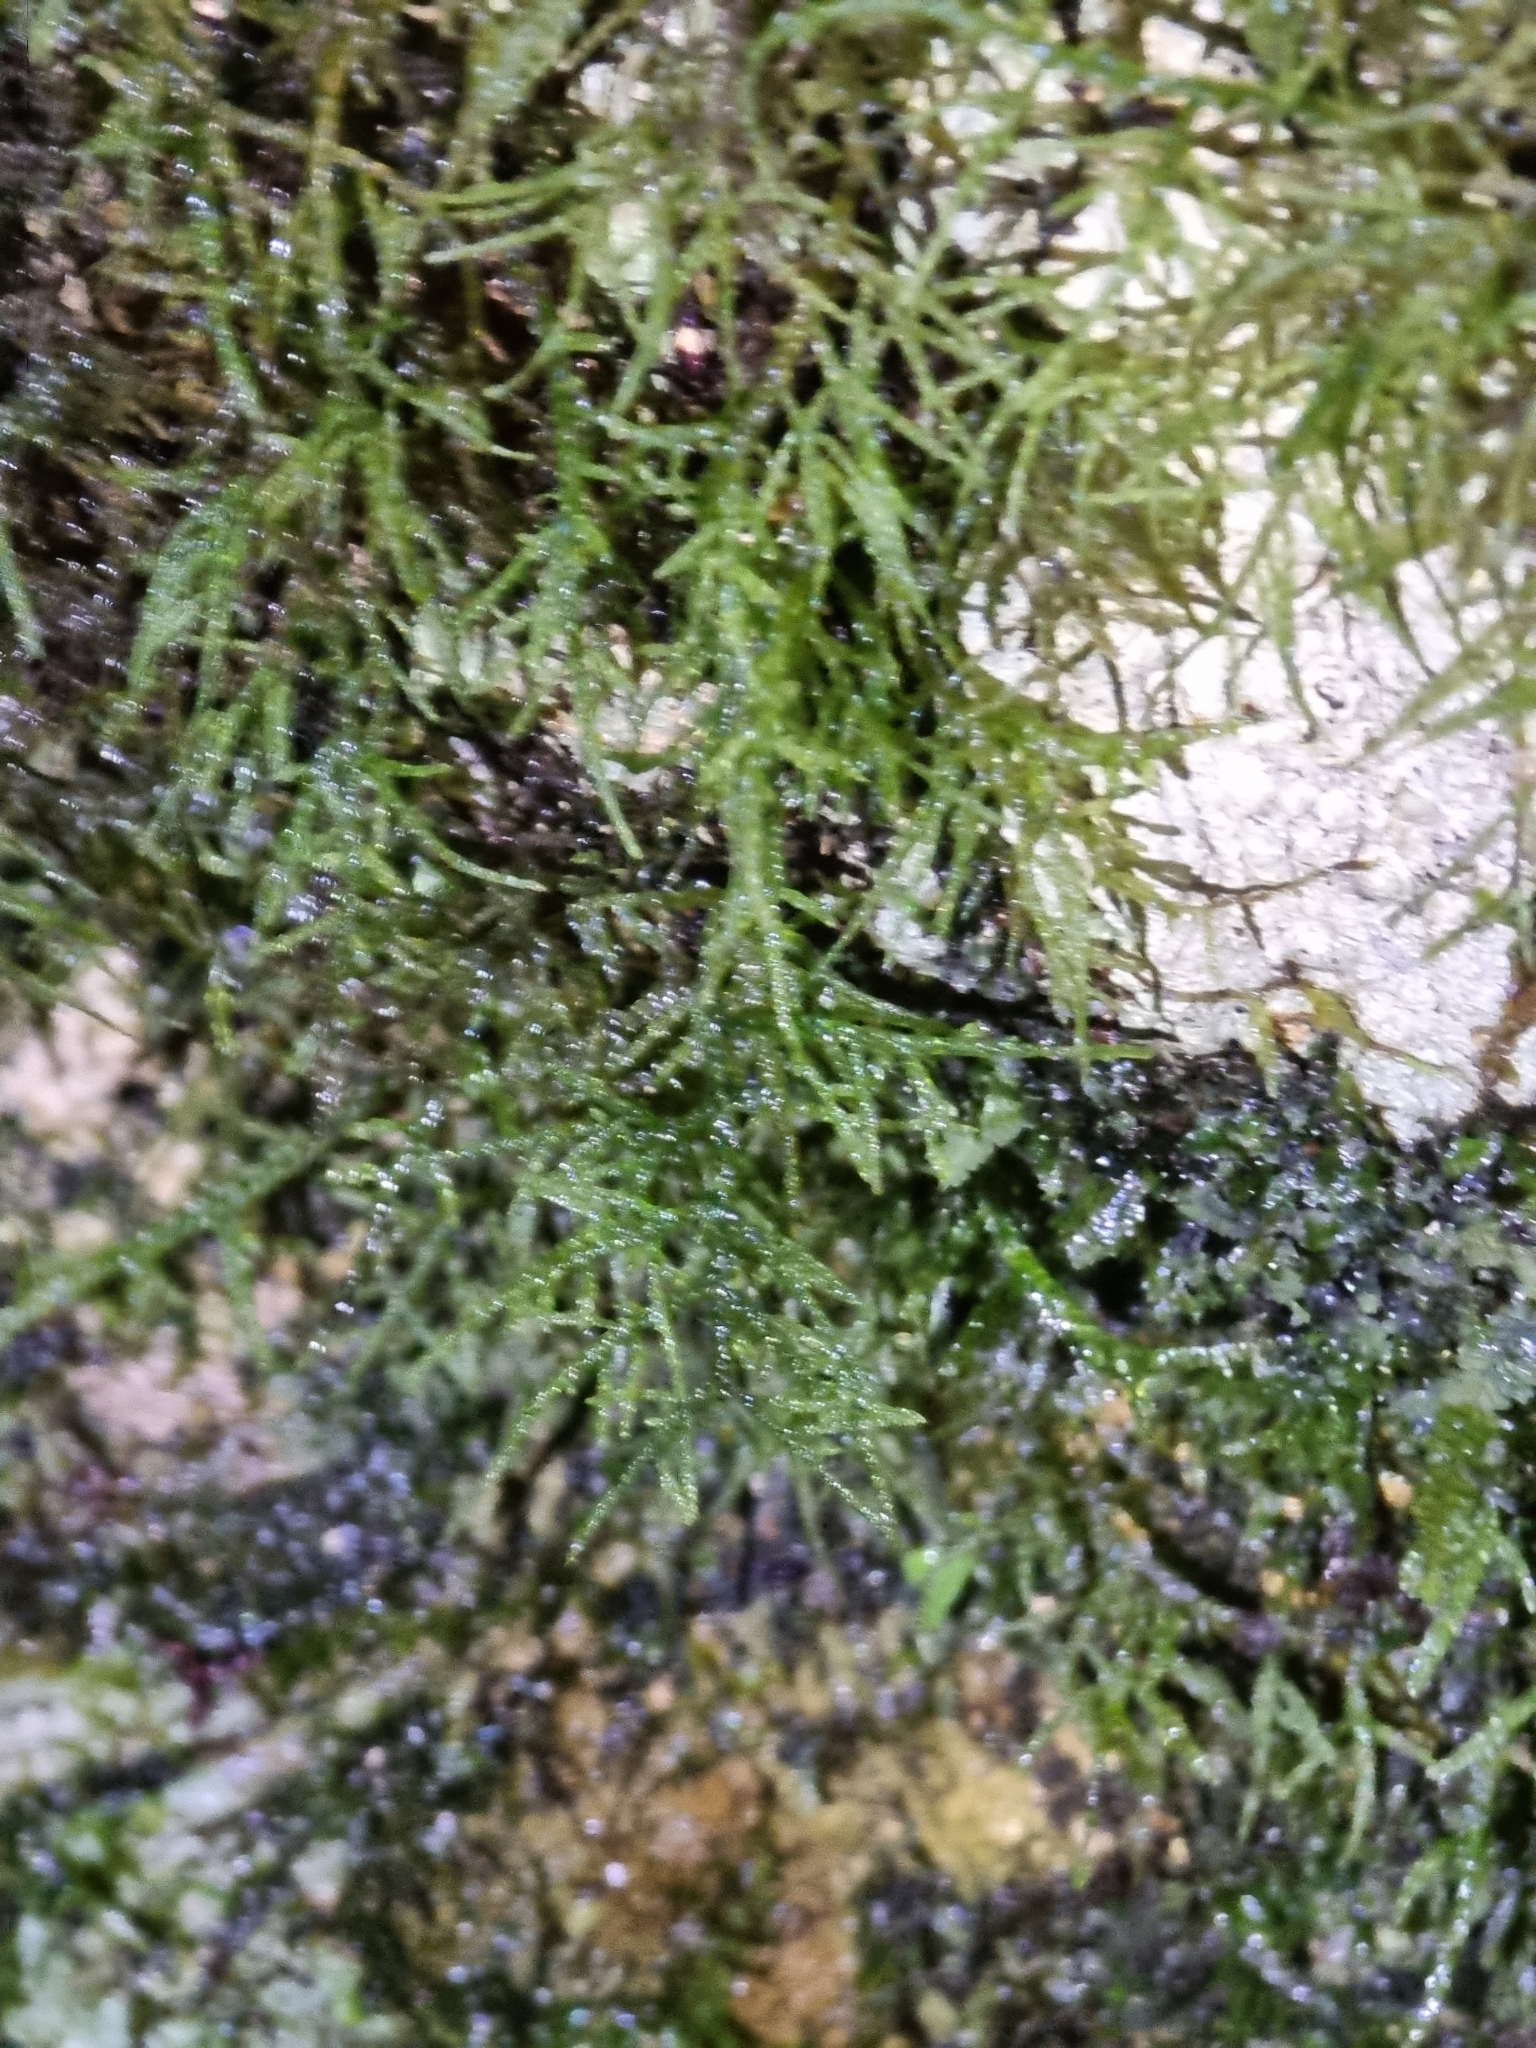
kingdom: Plantae
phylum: Bryophyta
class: Bryopsida
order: Hypnales
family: Lembophyllaceae
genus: Camptochaete
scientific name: Camptochaete excavata
